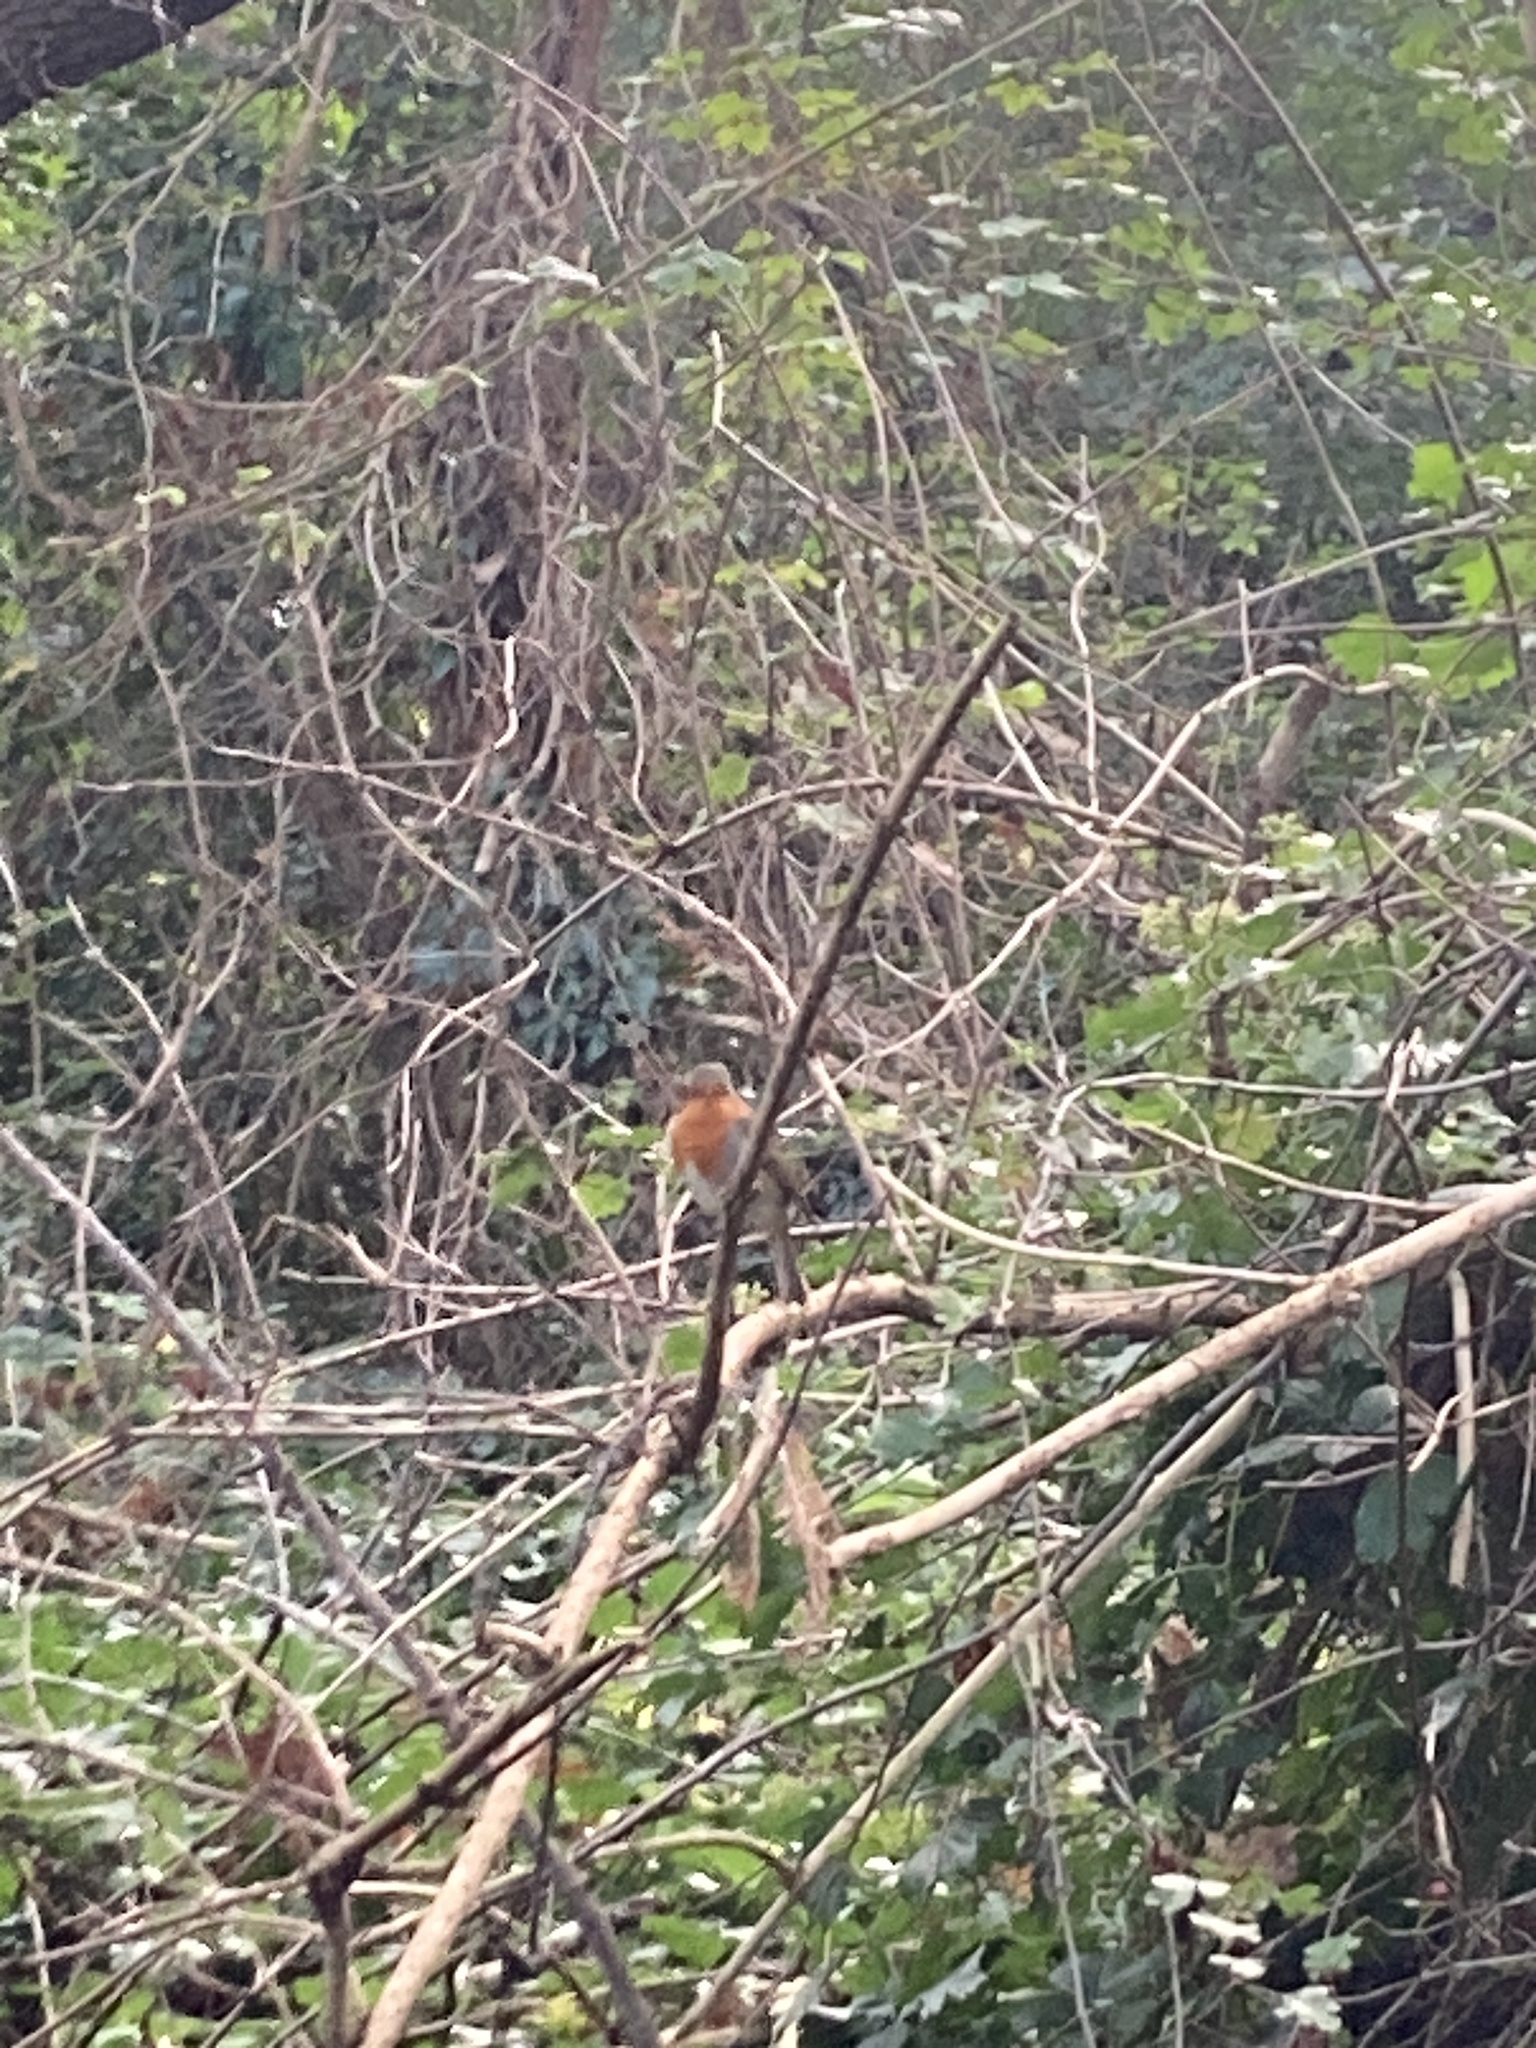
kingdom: Animalia
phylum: Chordata
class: Aves
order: Passeriformes
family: Muscicapidae
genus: Erithacus
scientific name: Erithacus rubecula
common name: European robin
